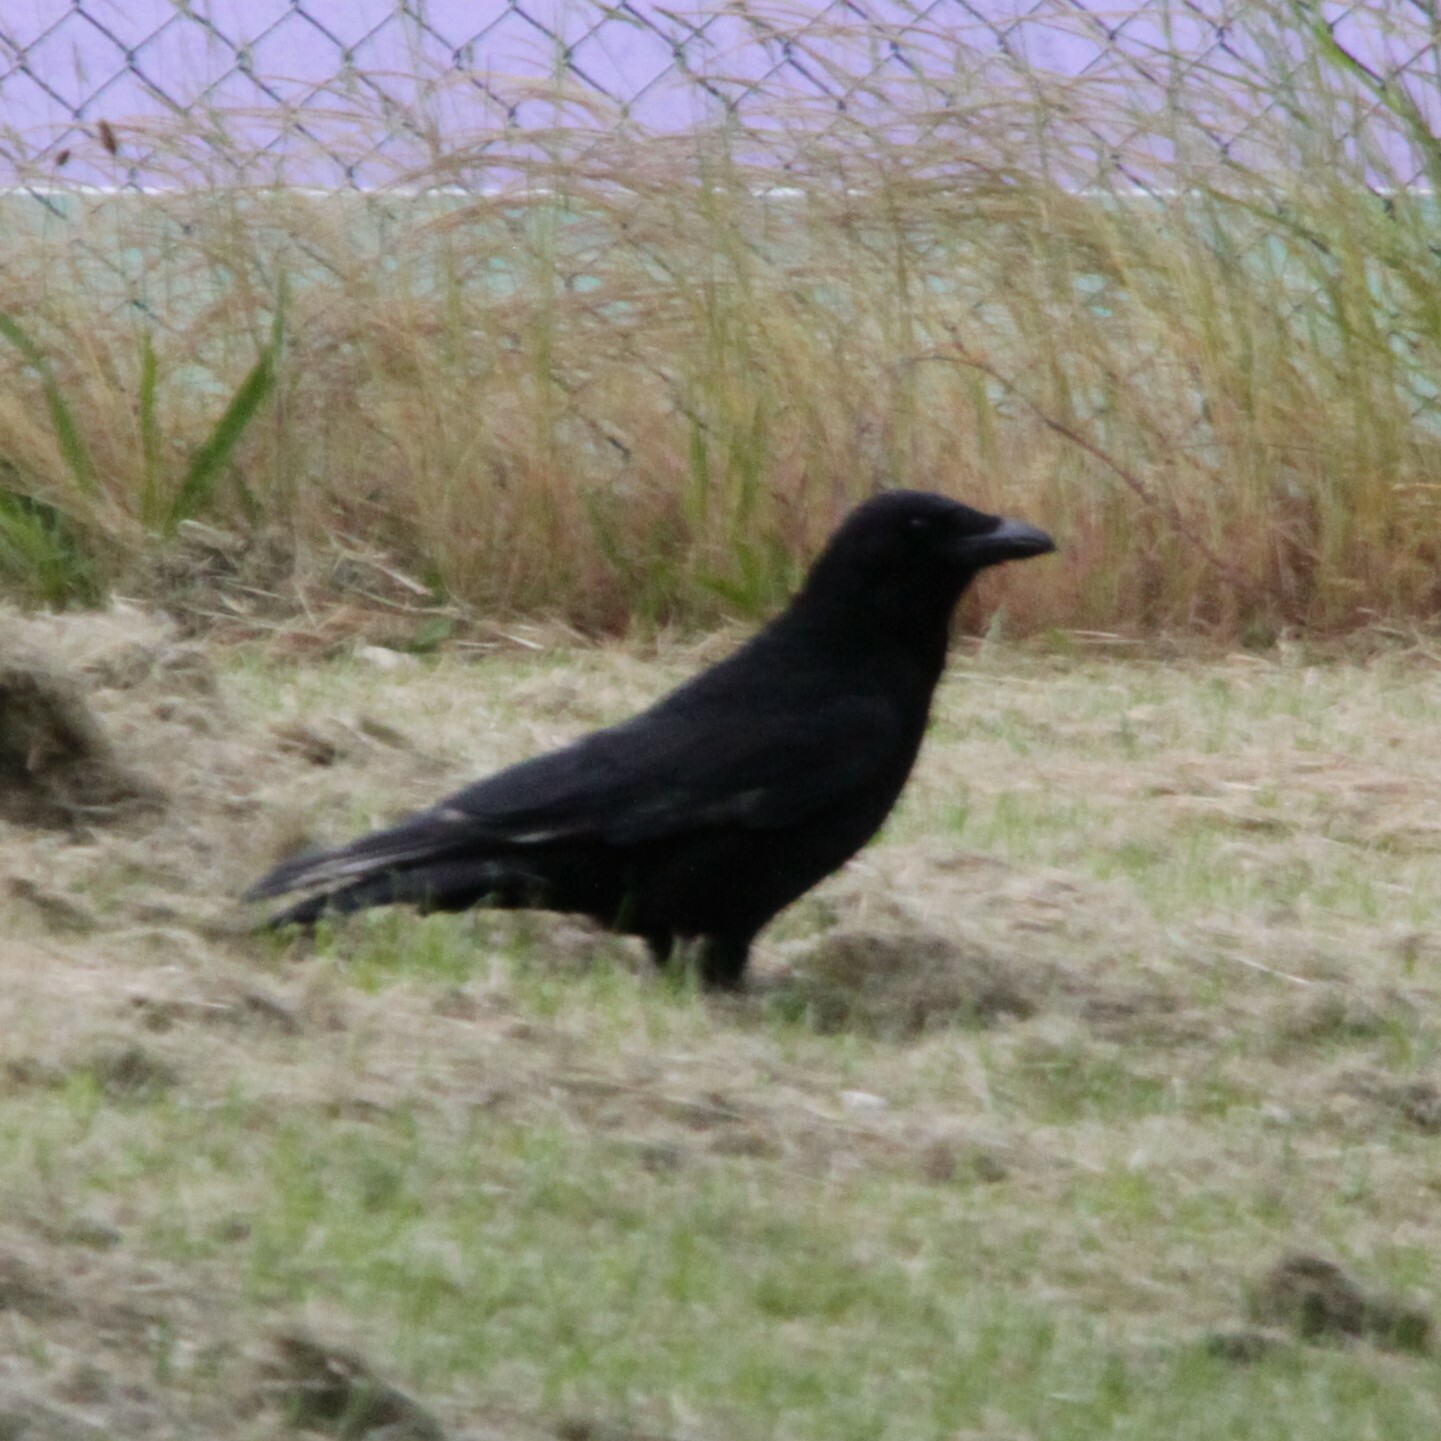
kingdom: Animalia
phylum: Chordata
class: Aves
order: Passeriformes
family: Corvidae
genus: Corvus
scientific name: Corvus corone
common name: Carrion crow
